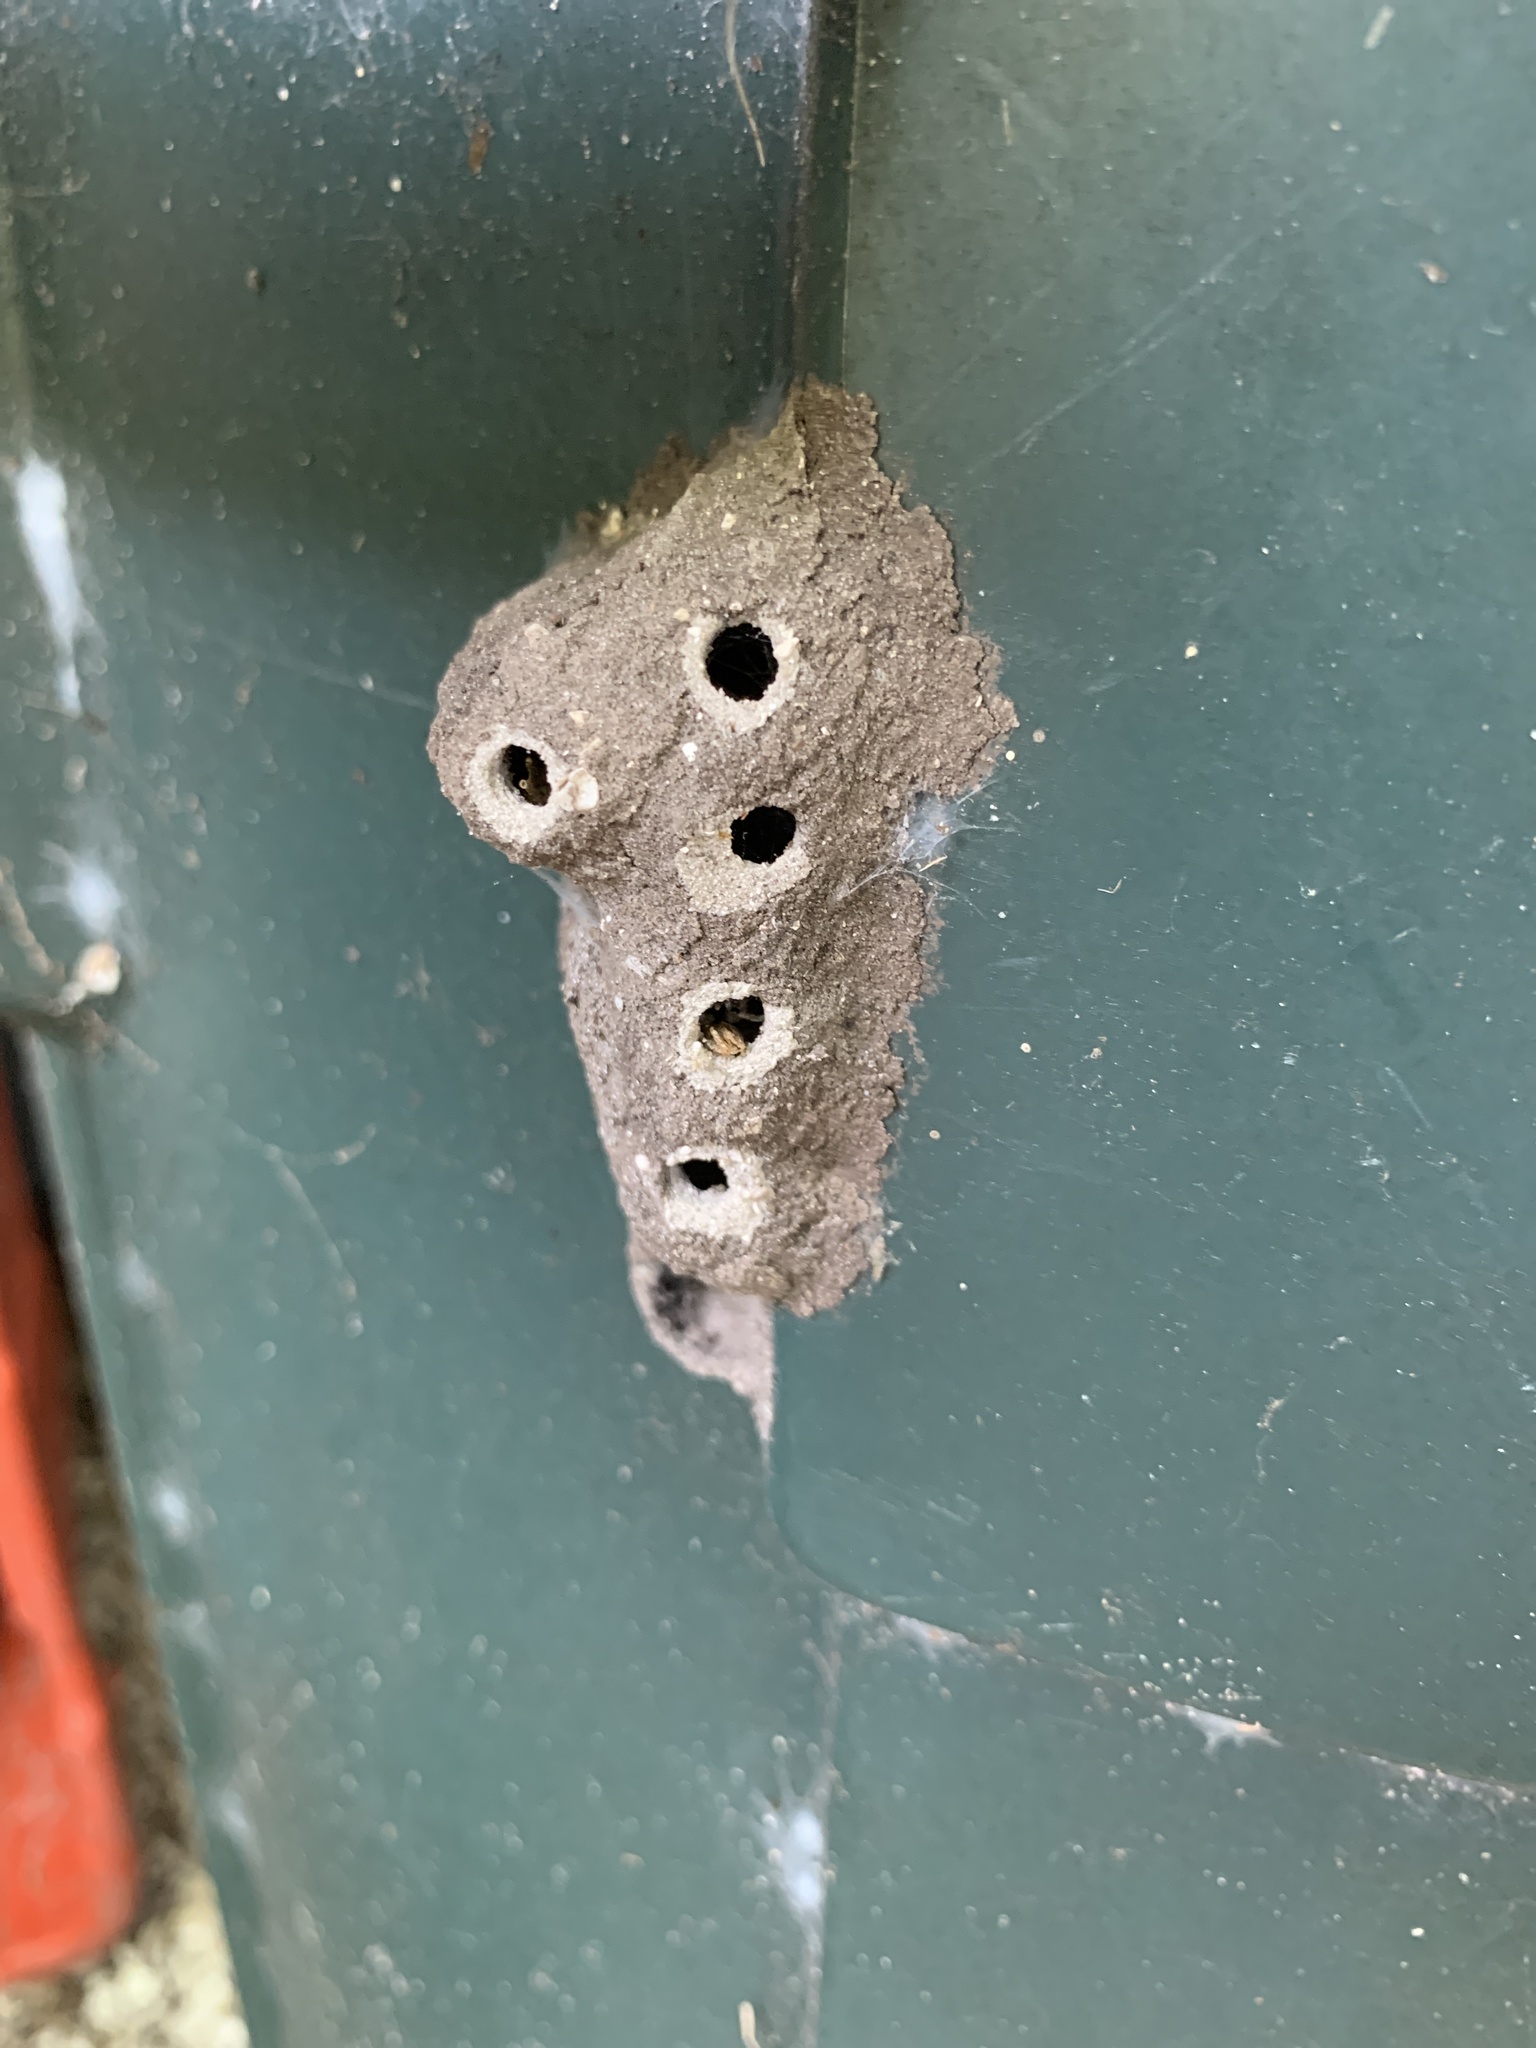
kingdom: Animalia
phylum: Arthropoda
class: Insecta
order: Hymenoptera
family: Sphecidae
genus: Sceliphron
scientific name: Sceliphron caementarium
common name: Mud dauber
